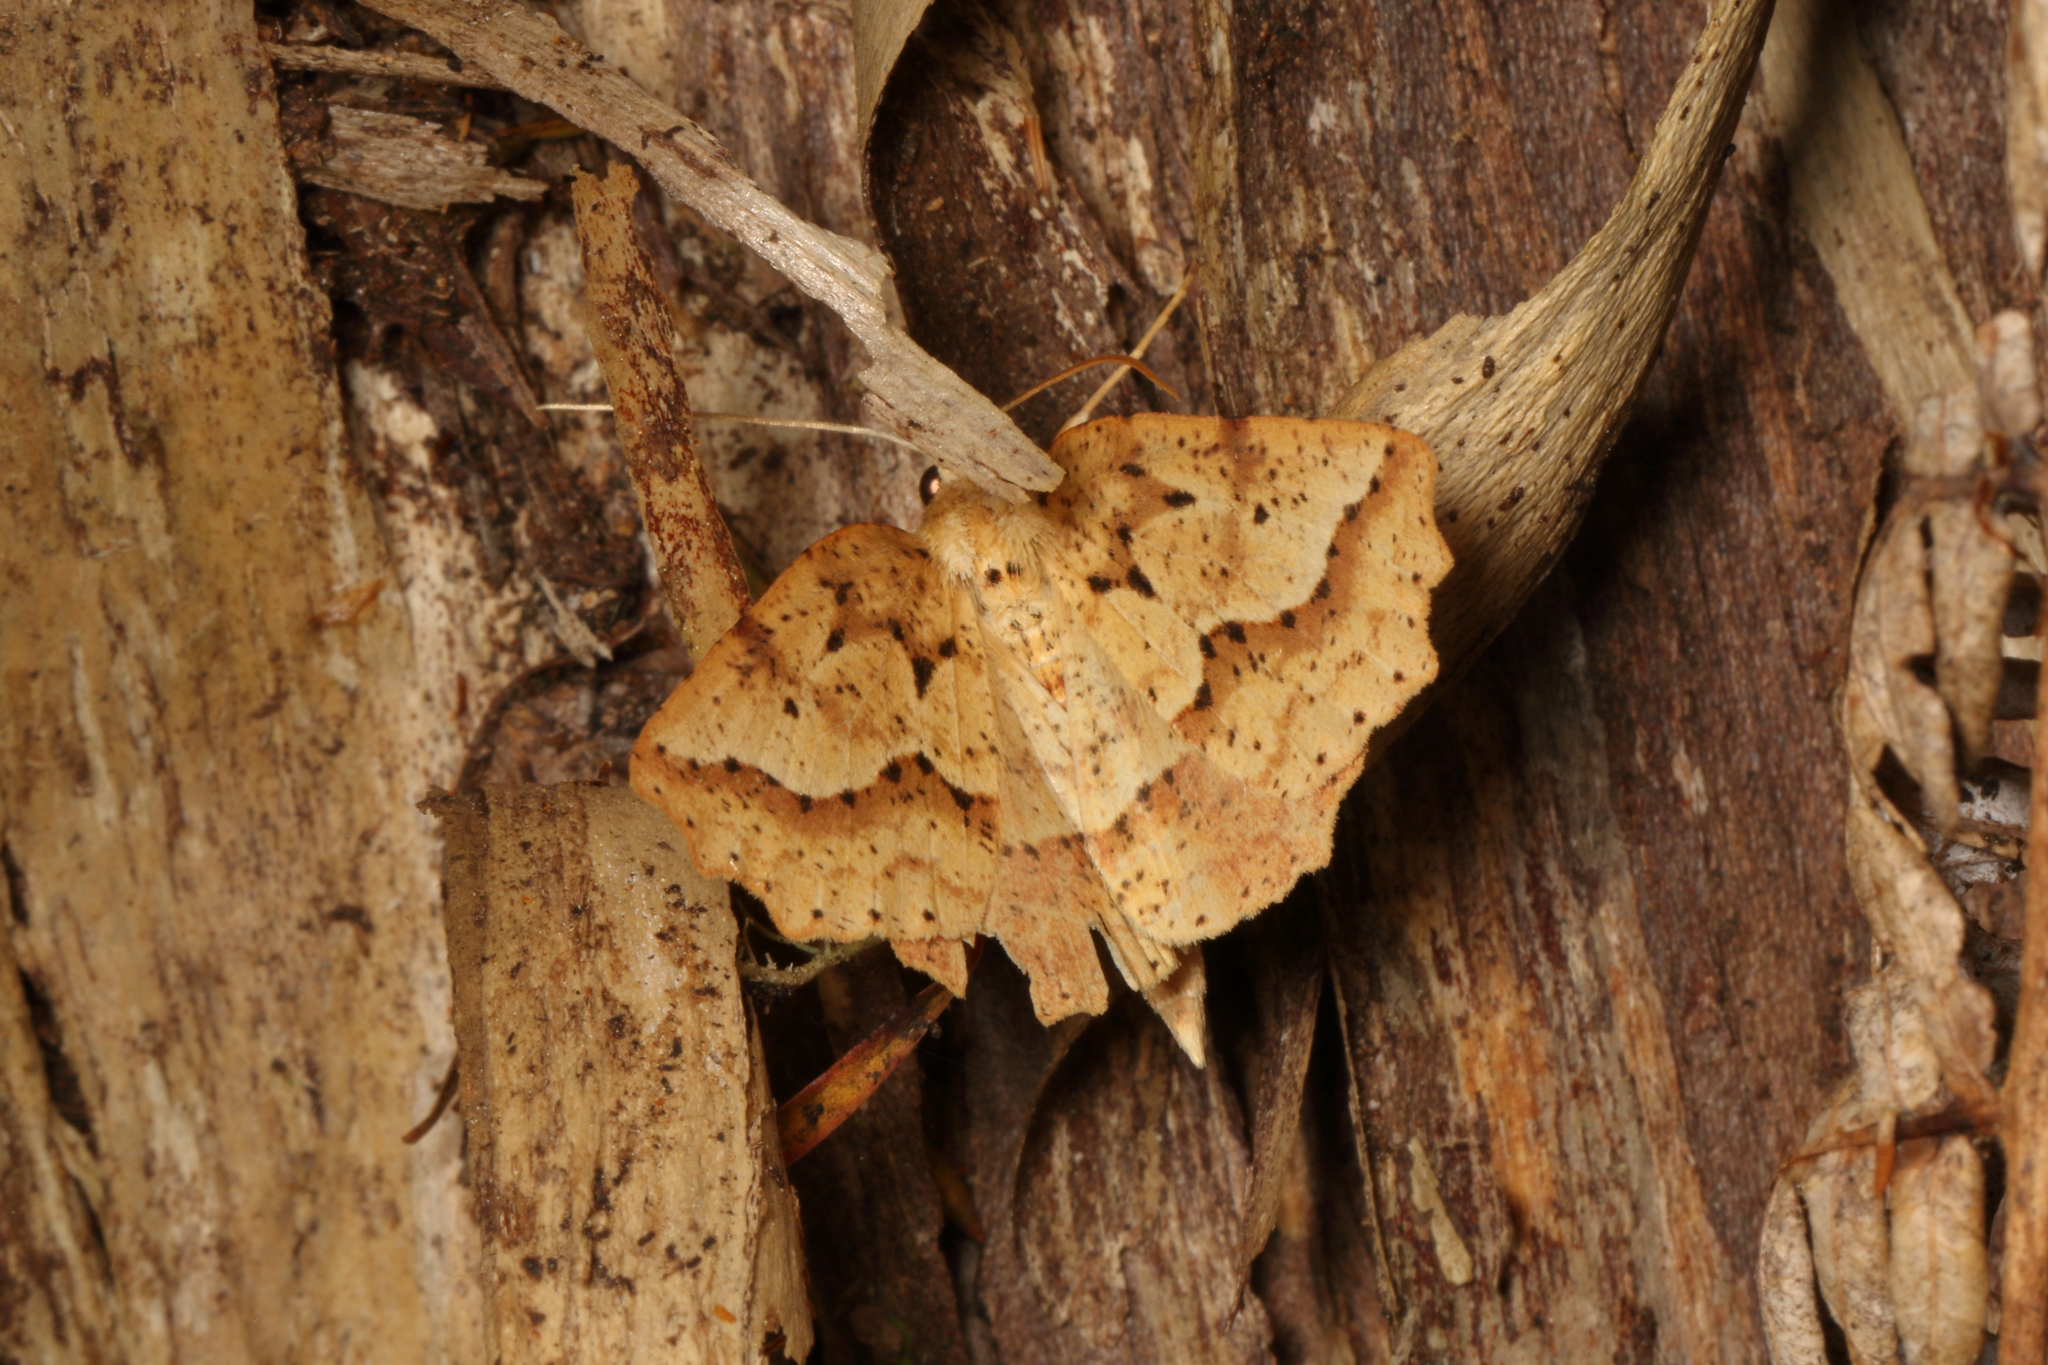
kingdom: Animalia
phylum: Arthropoda
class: Insecta
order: Lepidoptera
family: Geometridae
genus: Ischalis
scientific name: Ischalis variabilis
